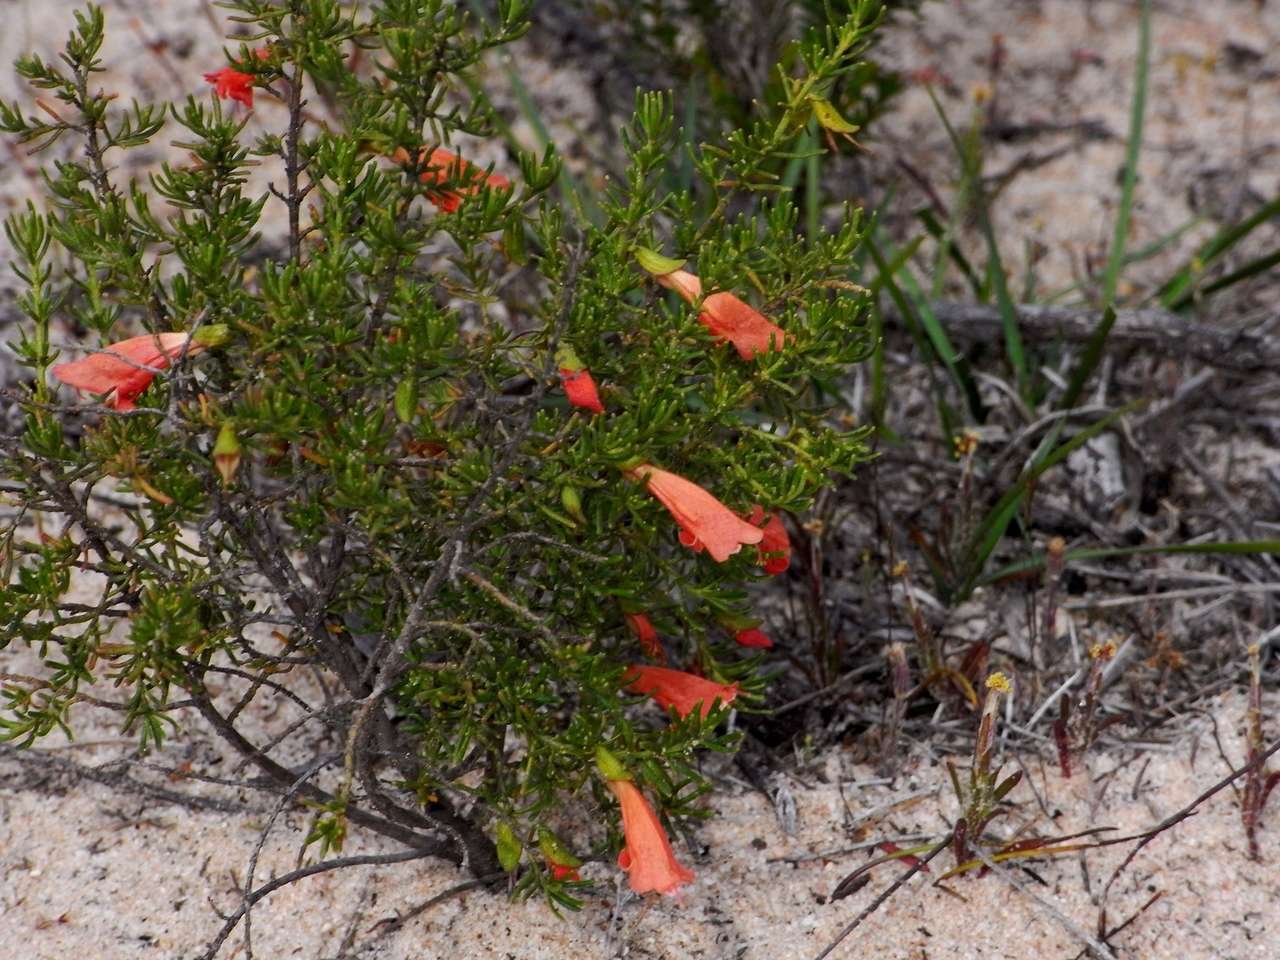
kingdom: Plantae
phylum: Tracheophyta
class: Magnoliopsida
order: Lamiales
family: Lamiaceae
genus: Prostanthera
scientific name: Prostanthera aspalathoides
